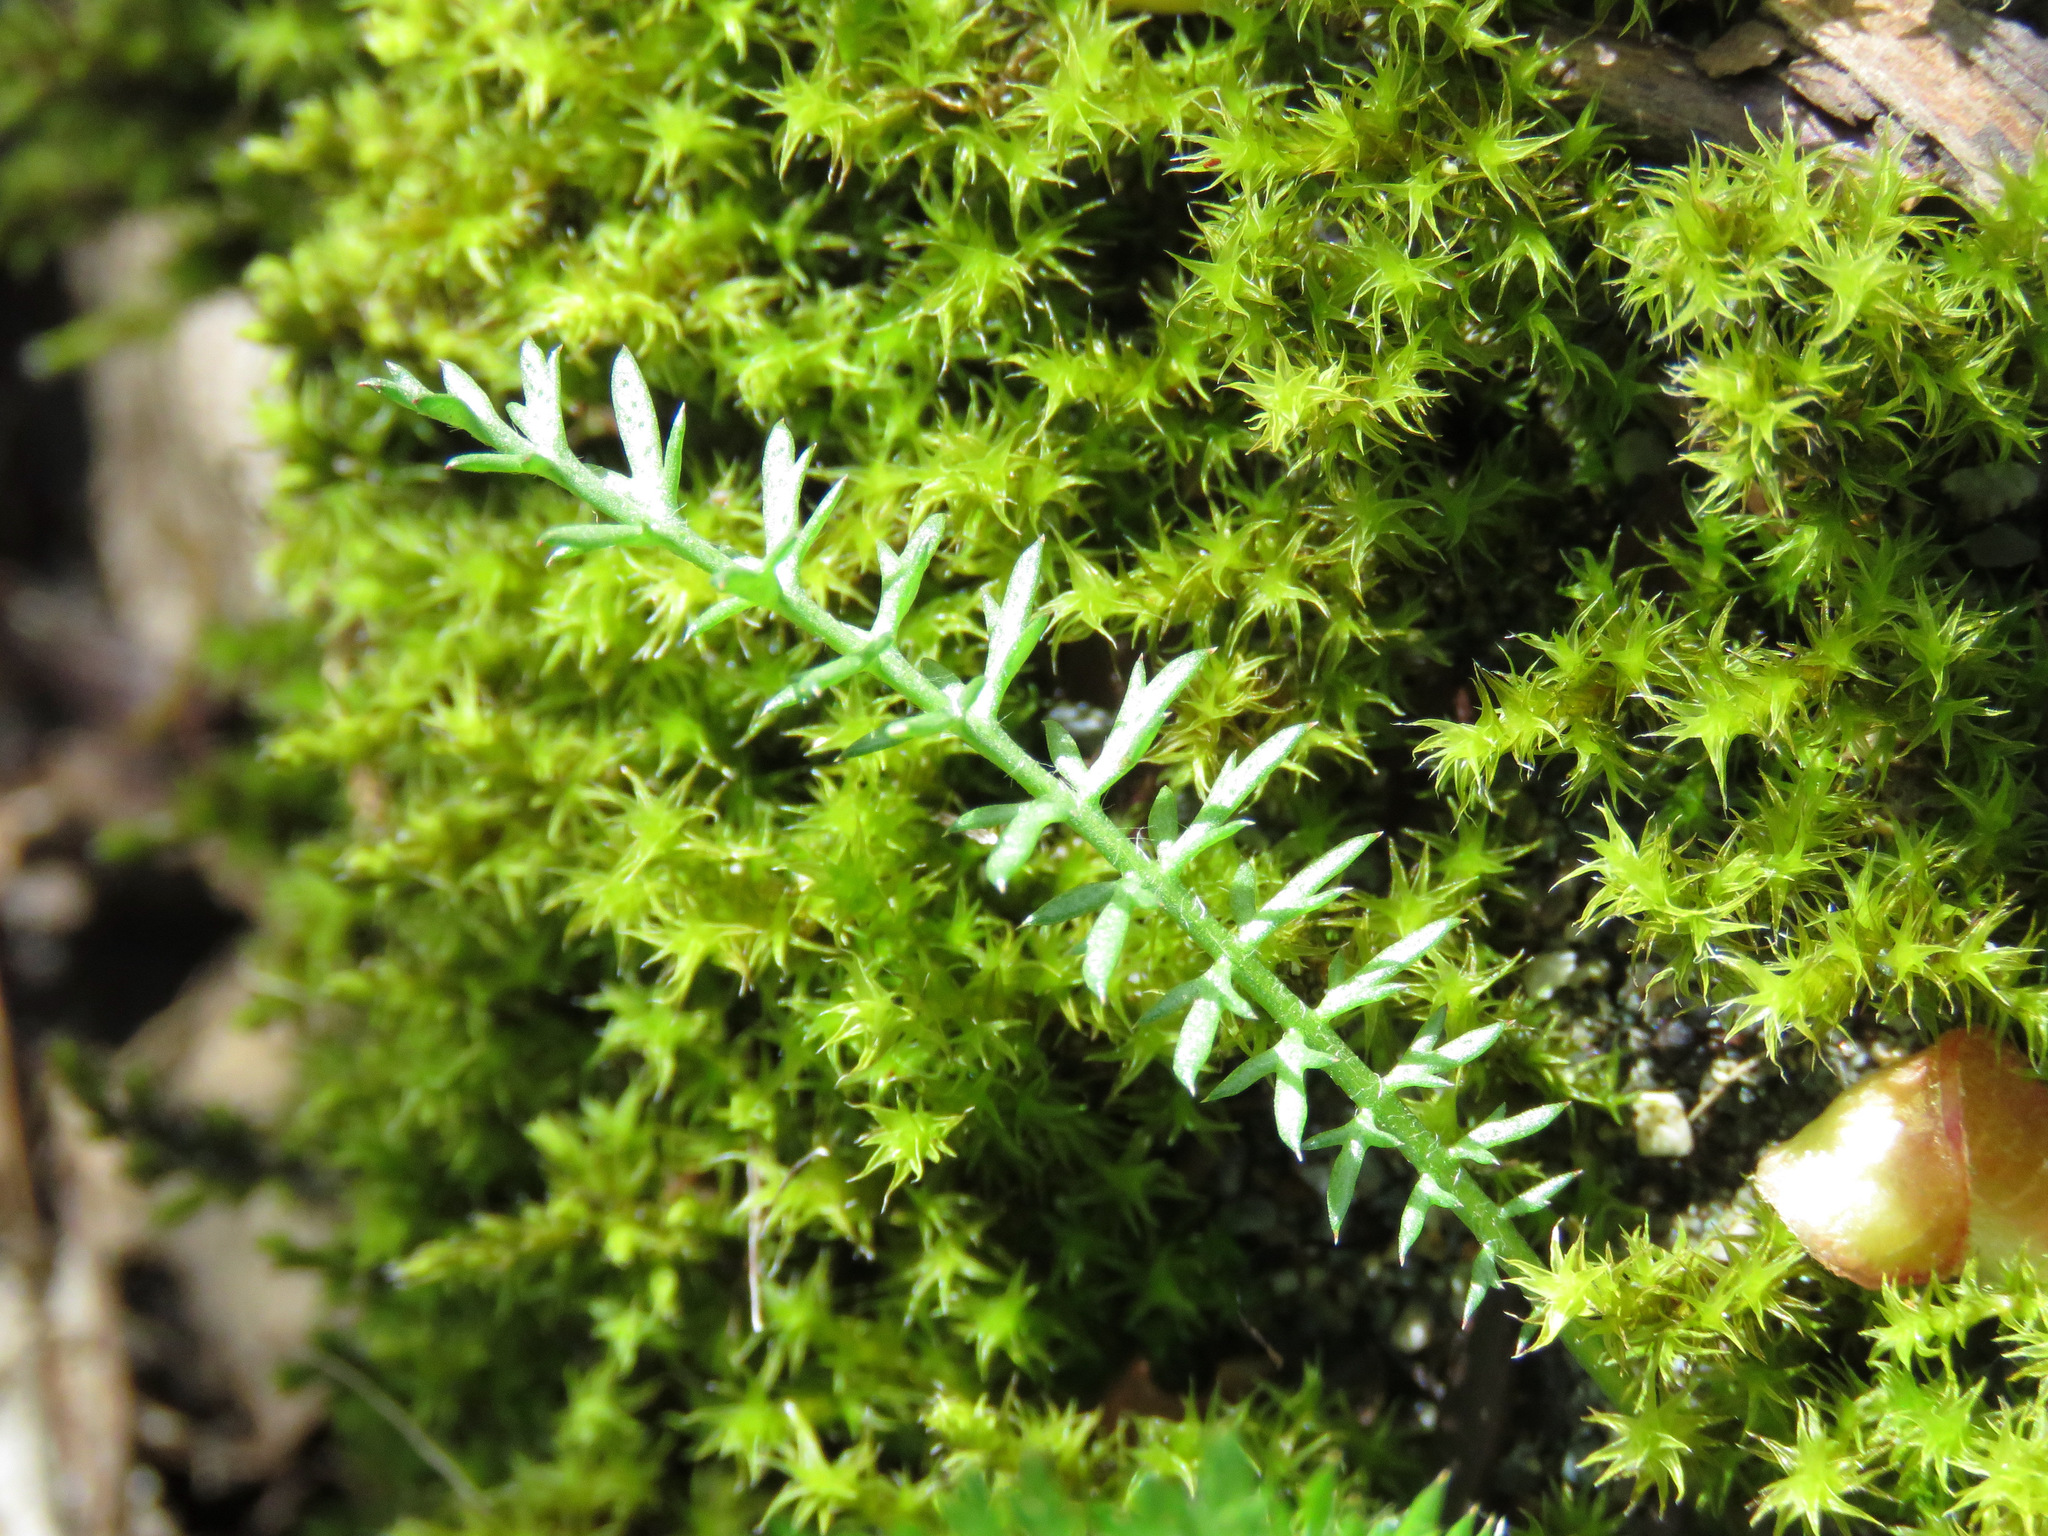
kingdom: Plantae
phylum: Tracheophyta
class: Magnoliopsida
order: Asterales
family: Asteraceae
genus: Achillea
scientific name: Achillea millefolium
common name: Yarrow
